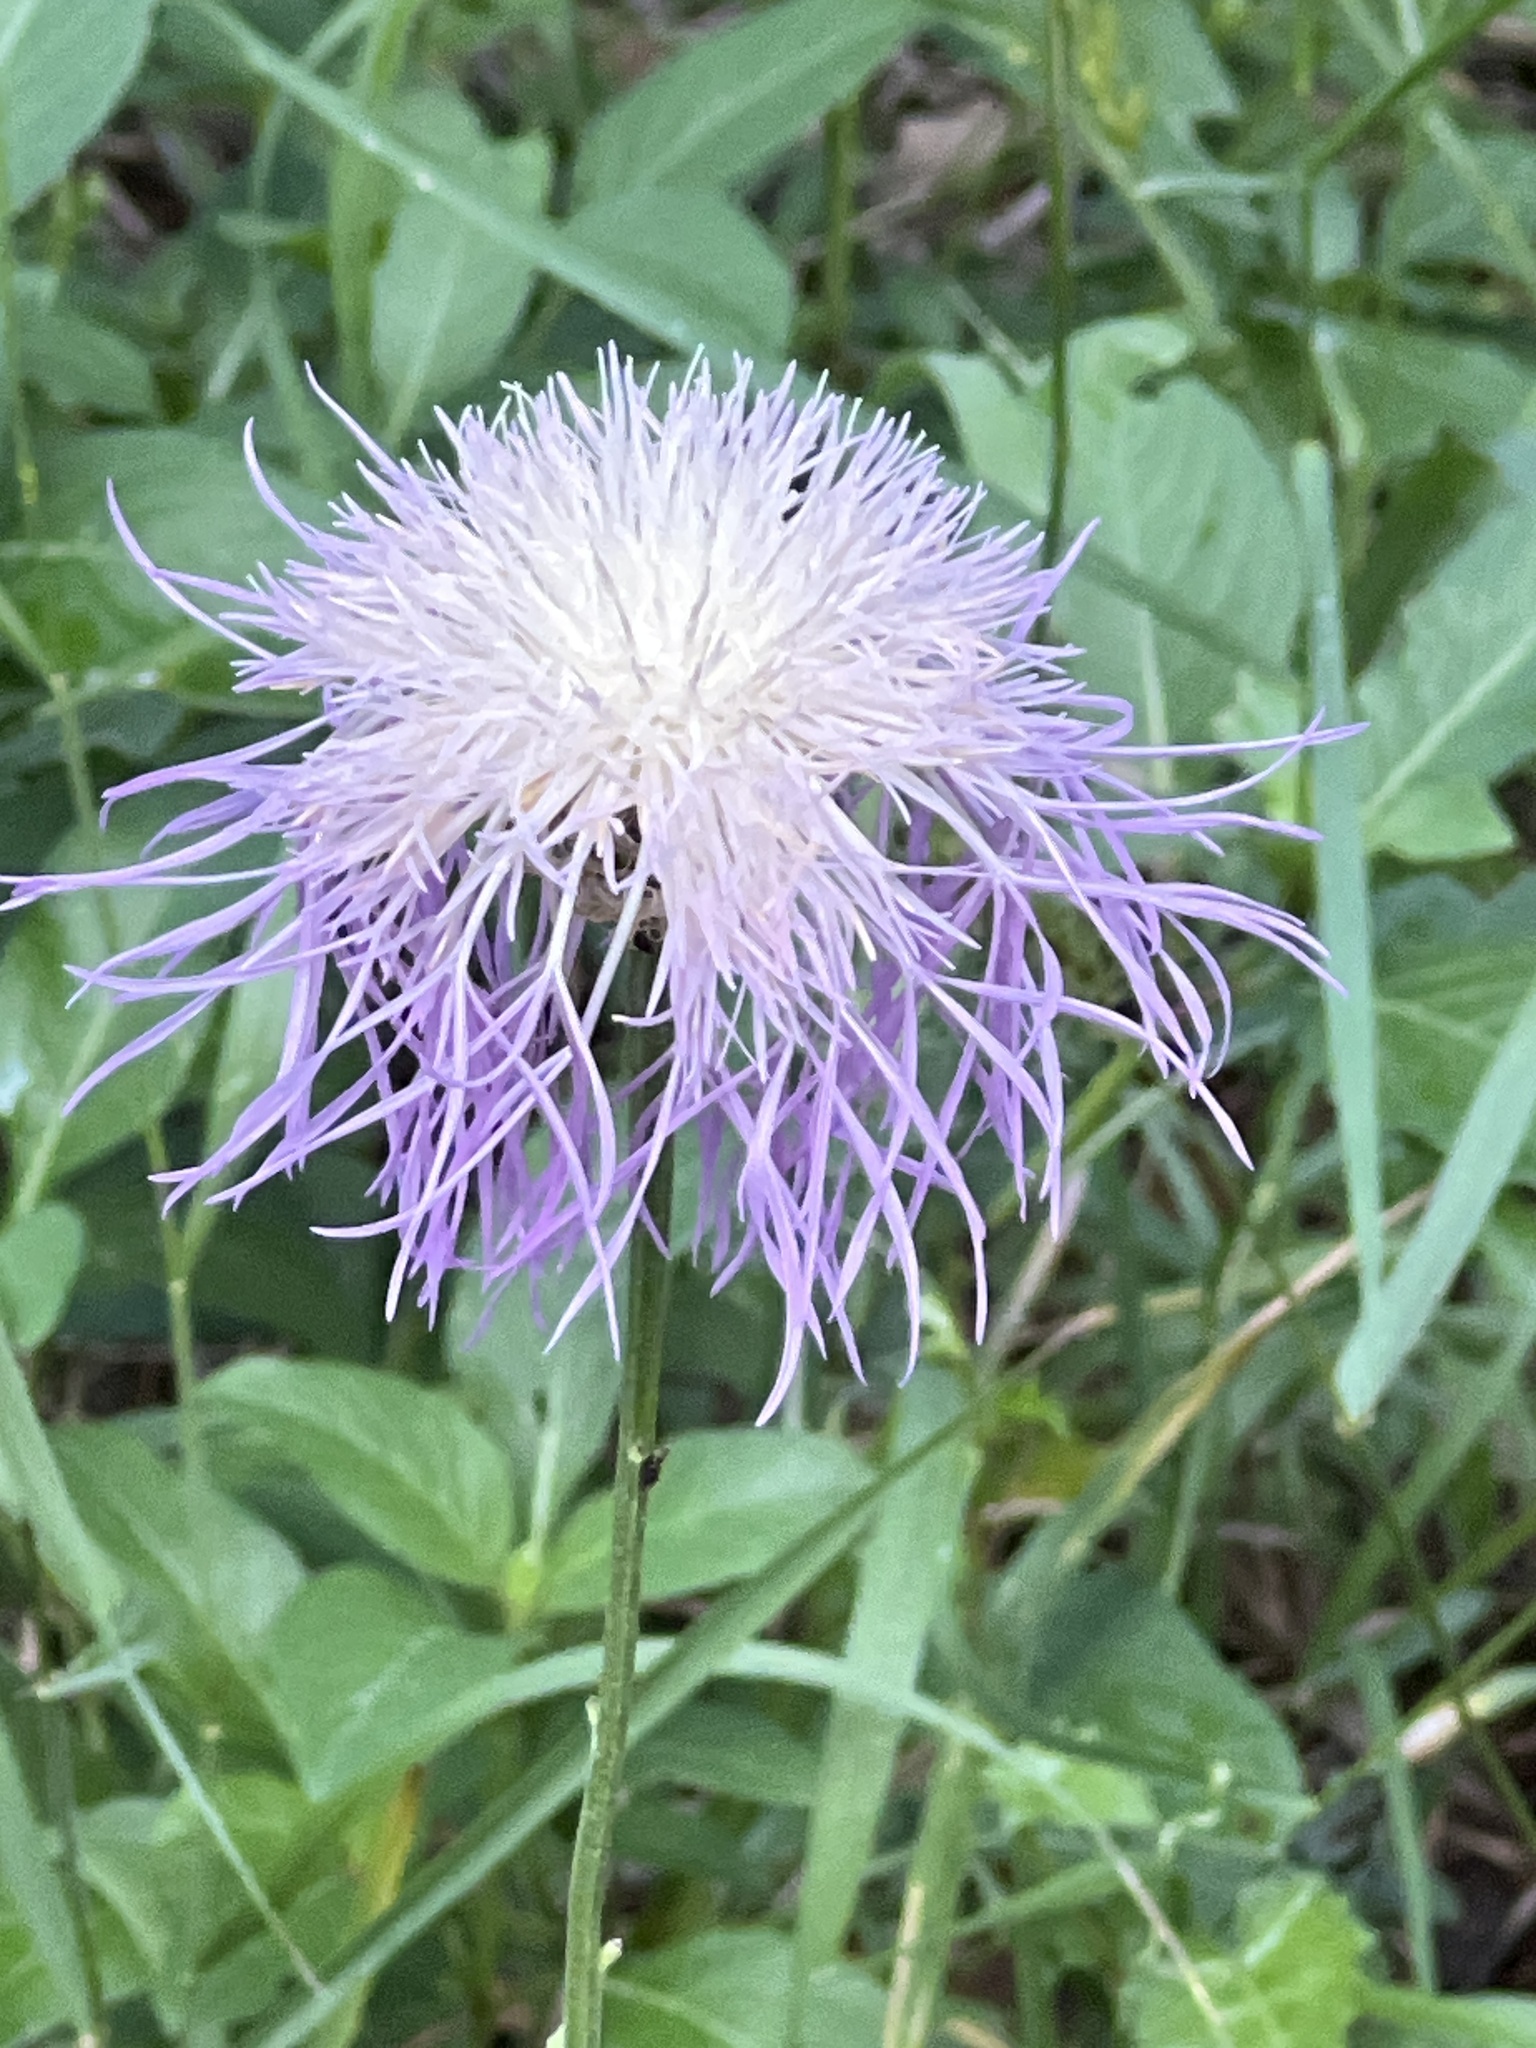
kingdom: Plantae
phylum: Tracheophyta
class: Magnoliopsida
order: Asterales
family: Asteraceae
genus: Plectocephalus
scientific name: Plectocephalus americanus
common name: American basket-flower
